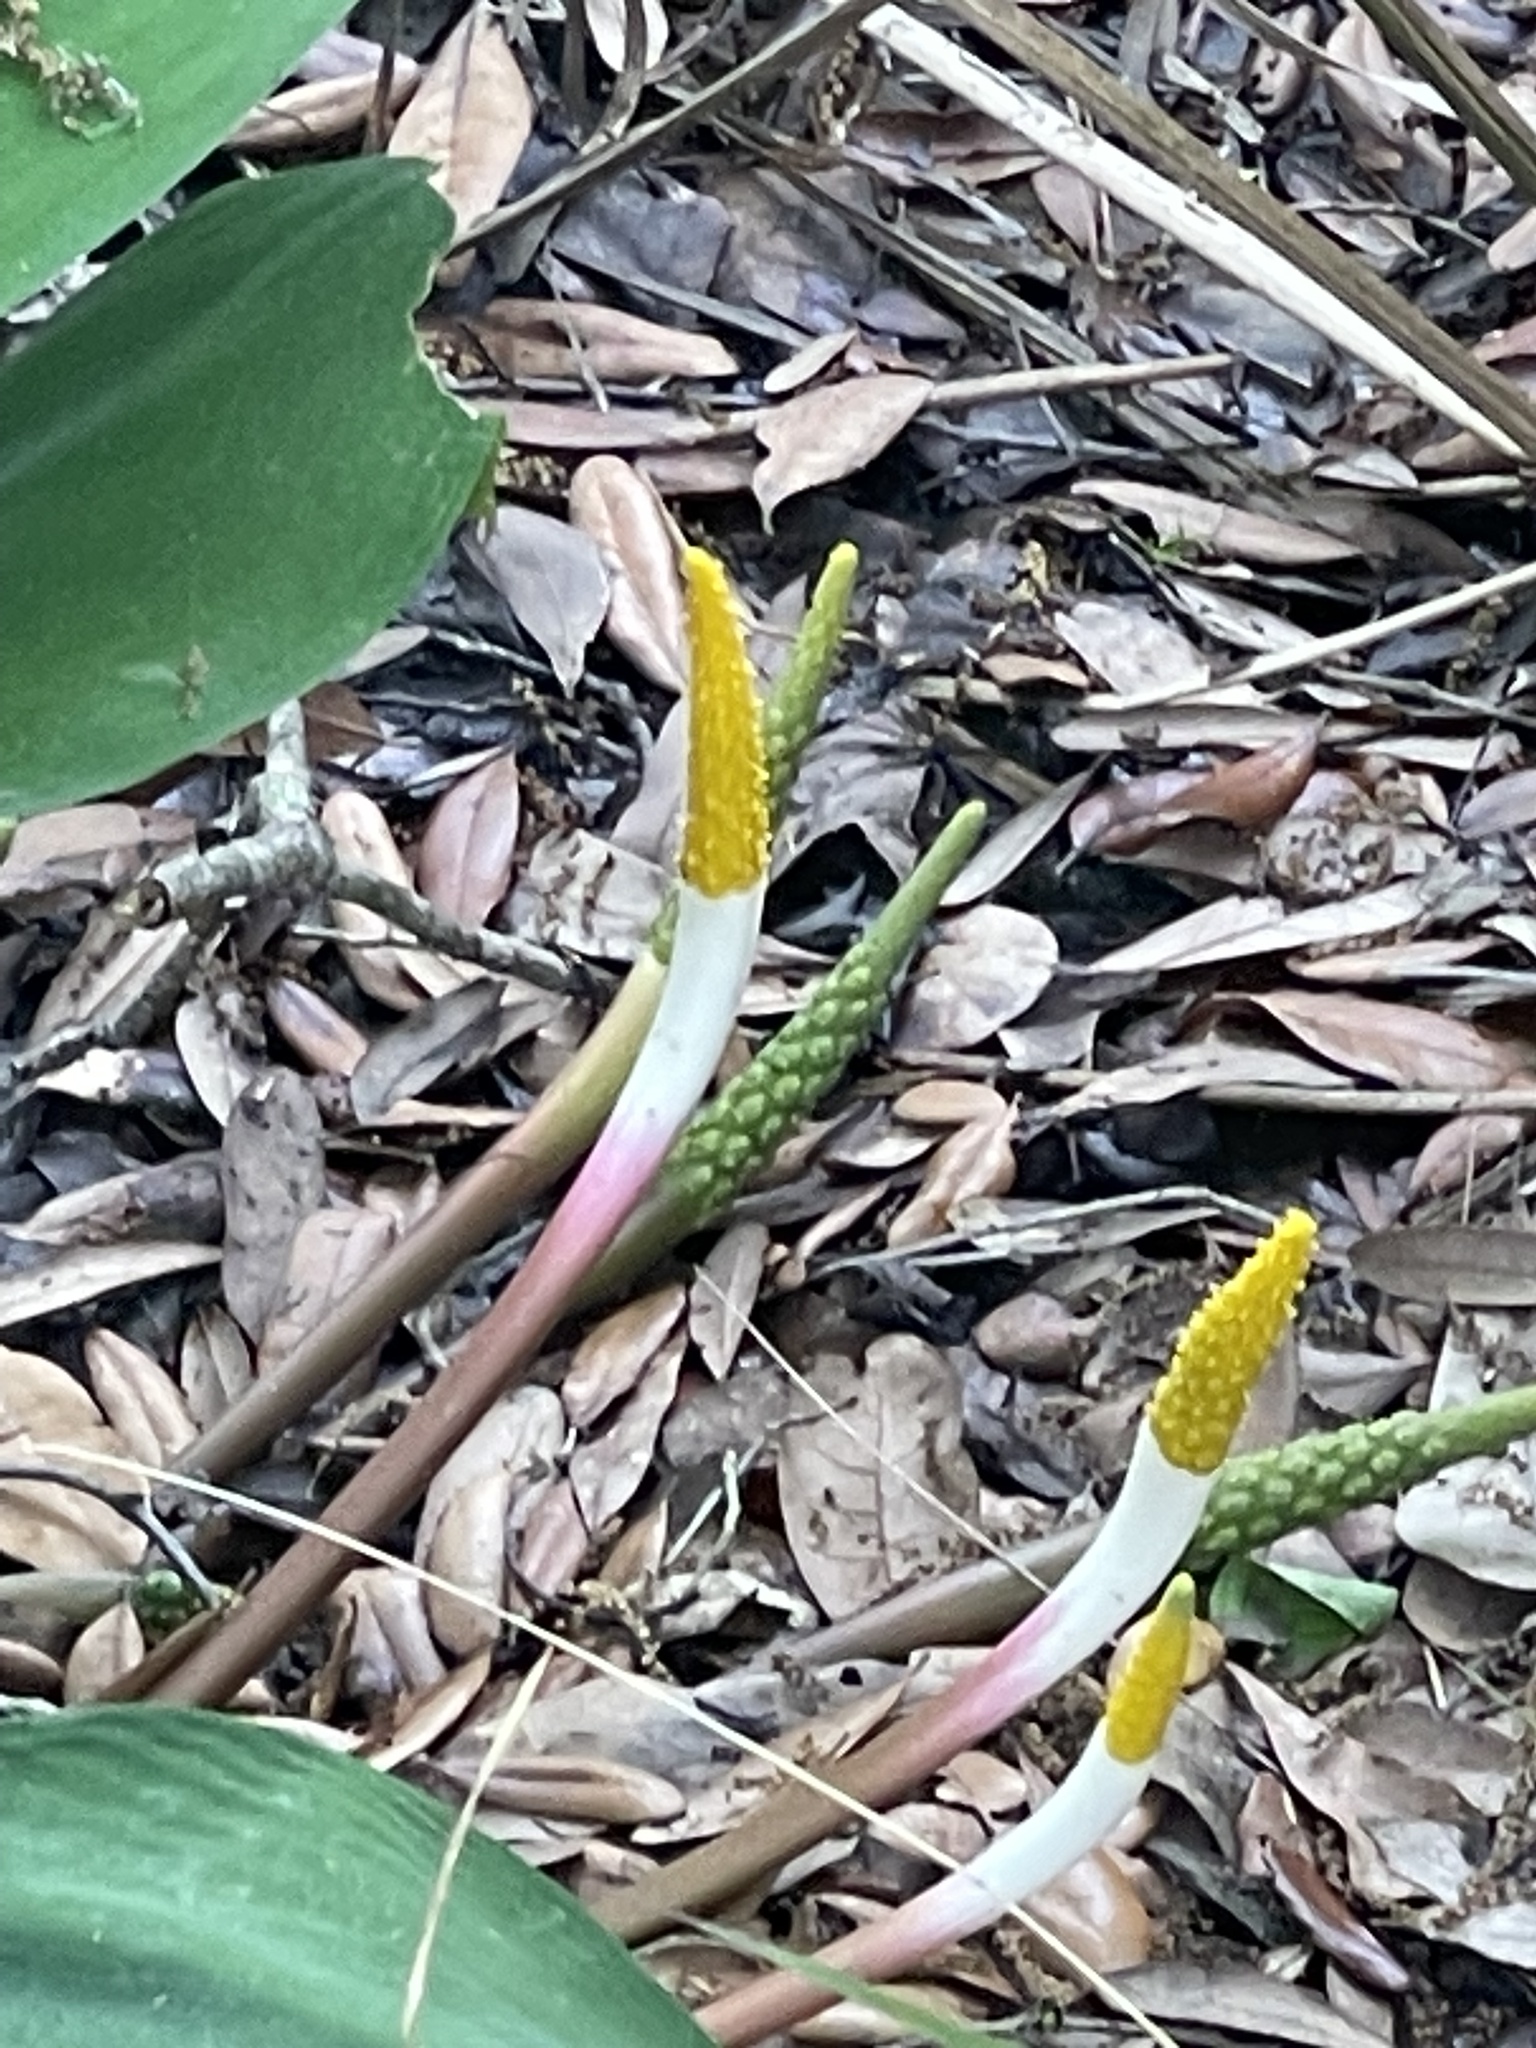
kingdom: Plantae
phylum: Tracheophyta
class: Liliopsida
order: Alismatales
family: Araceae
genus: Orontium
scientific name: Orontium aquaticum
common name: Golden-club
